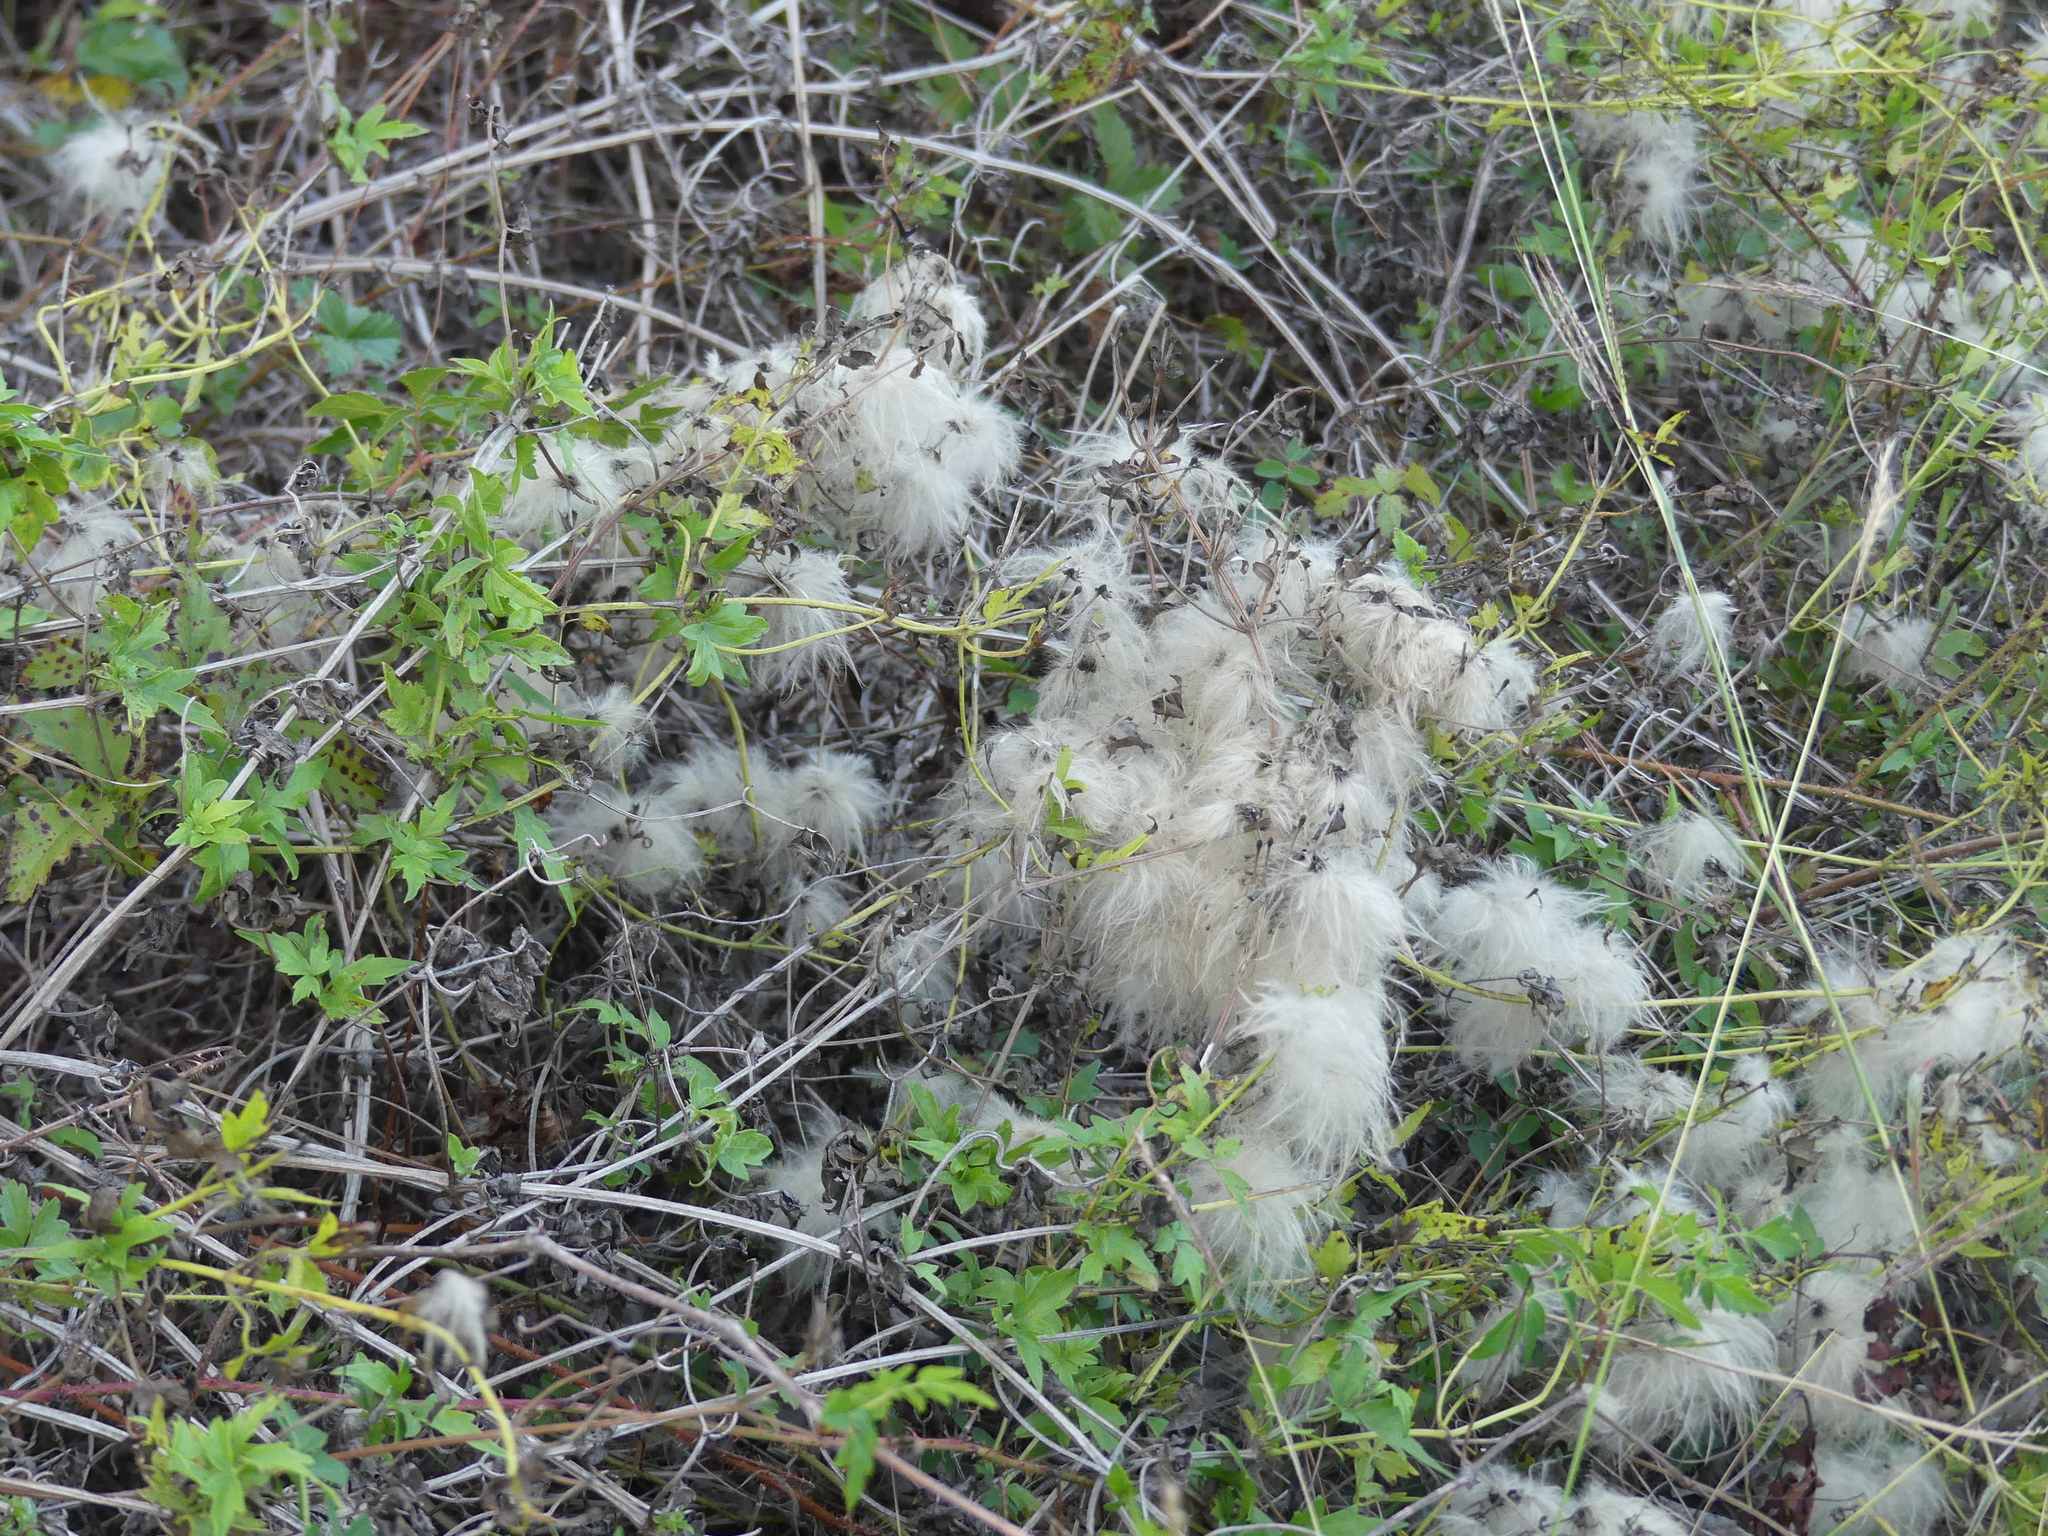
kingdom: Plantae
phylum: Tracheophyta
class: Magnoliopsida
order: Ranunculales
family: Ranunculaceae
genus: Clematis
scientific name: Clematis drummondii
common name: Texas virgin's bower
